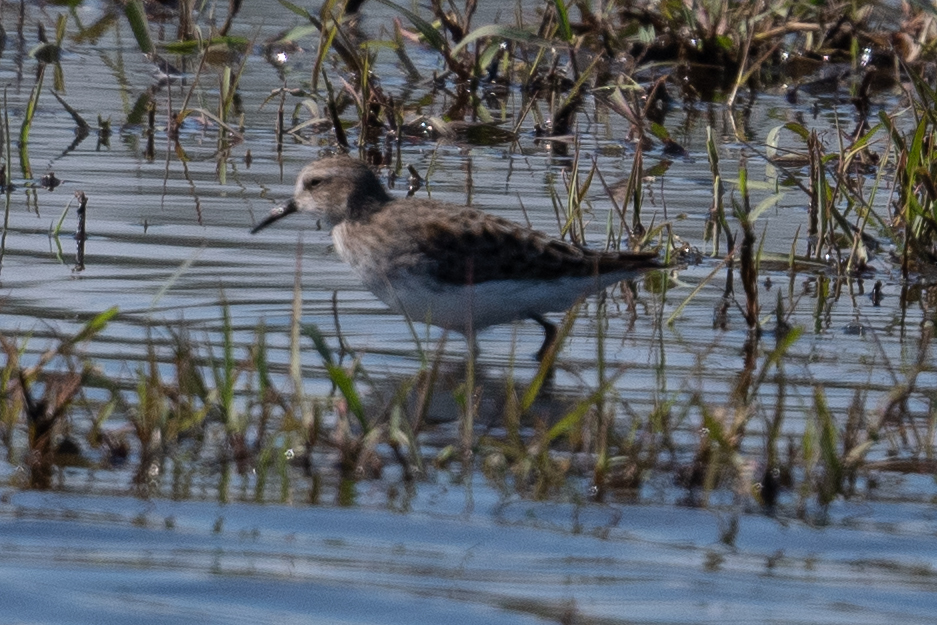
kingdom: Animalia
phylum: Chordata
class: Aves
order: Charadriiformes
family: Scolopacidae
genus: Calidris
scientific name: Calidris minutilla
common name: Least sandpiper
